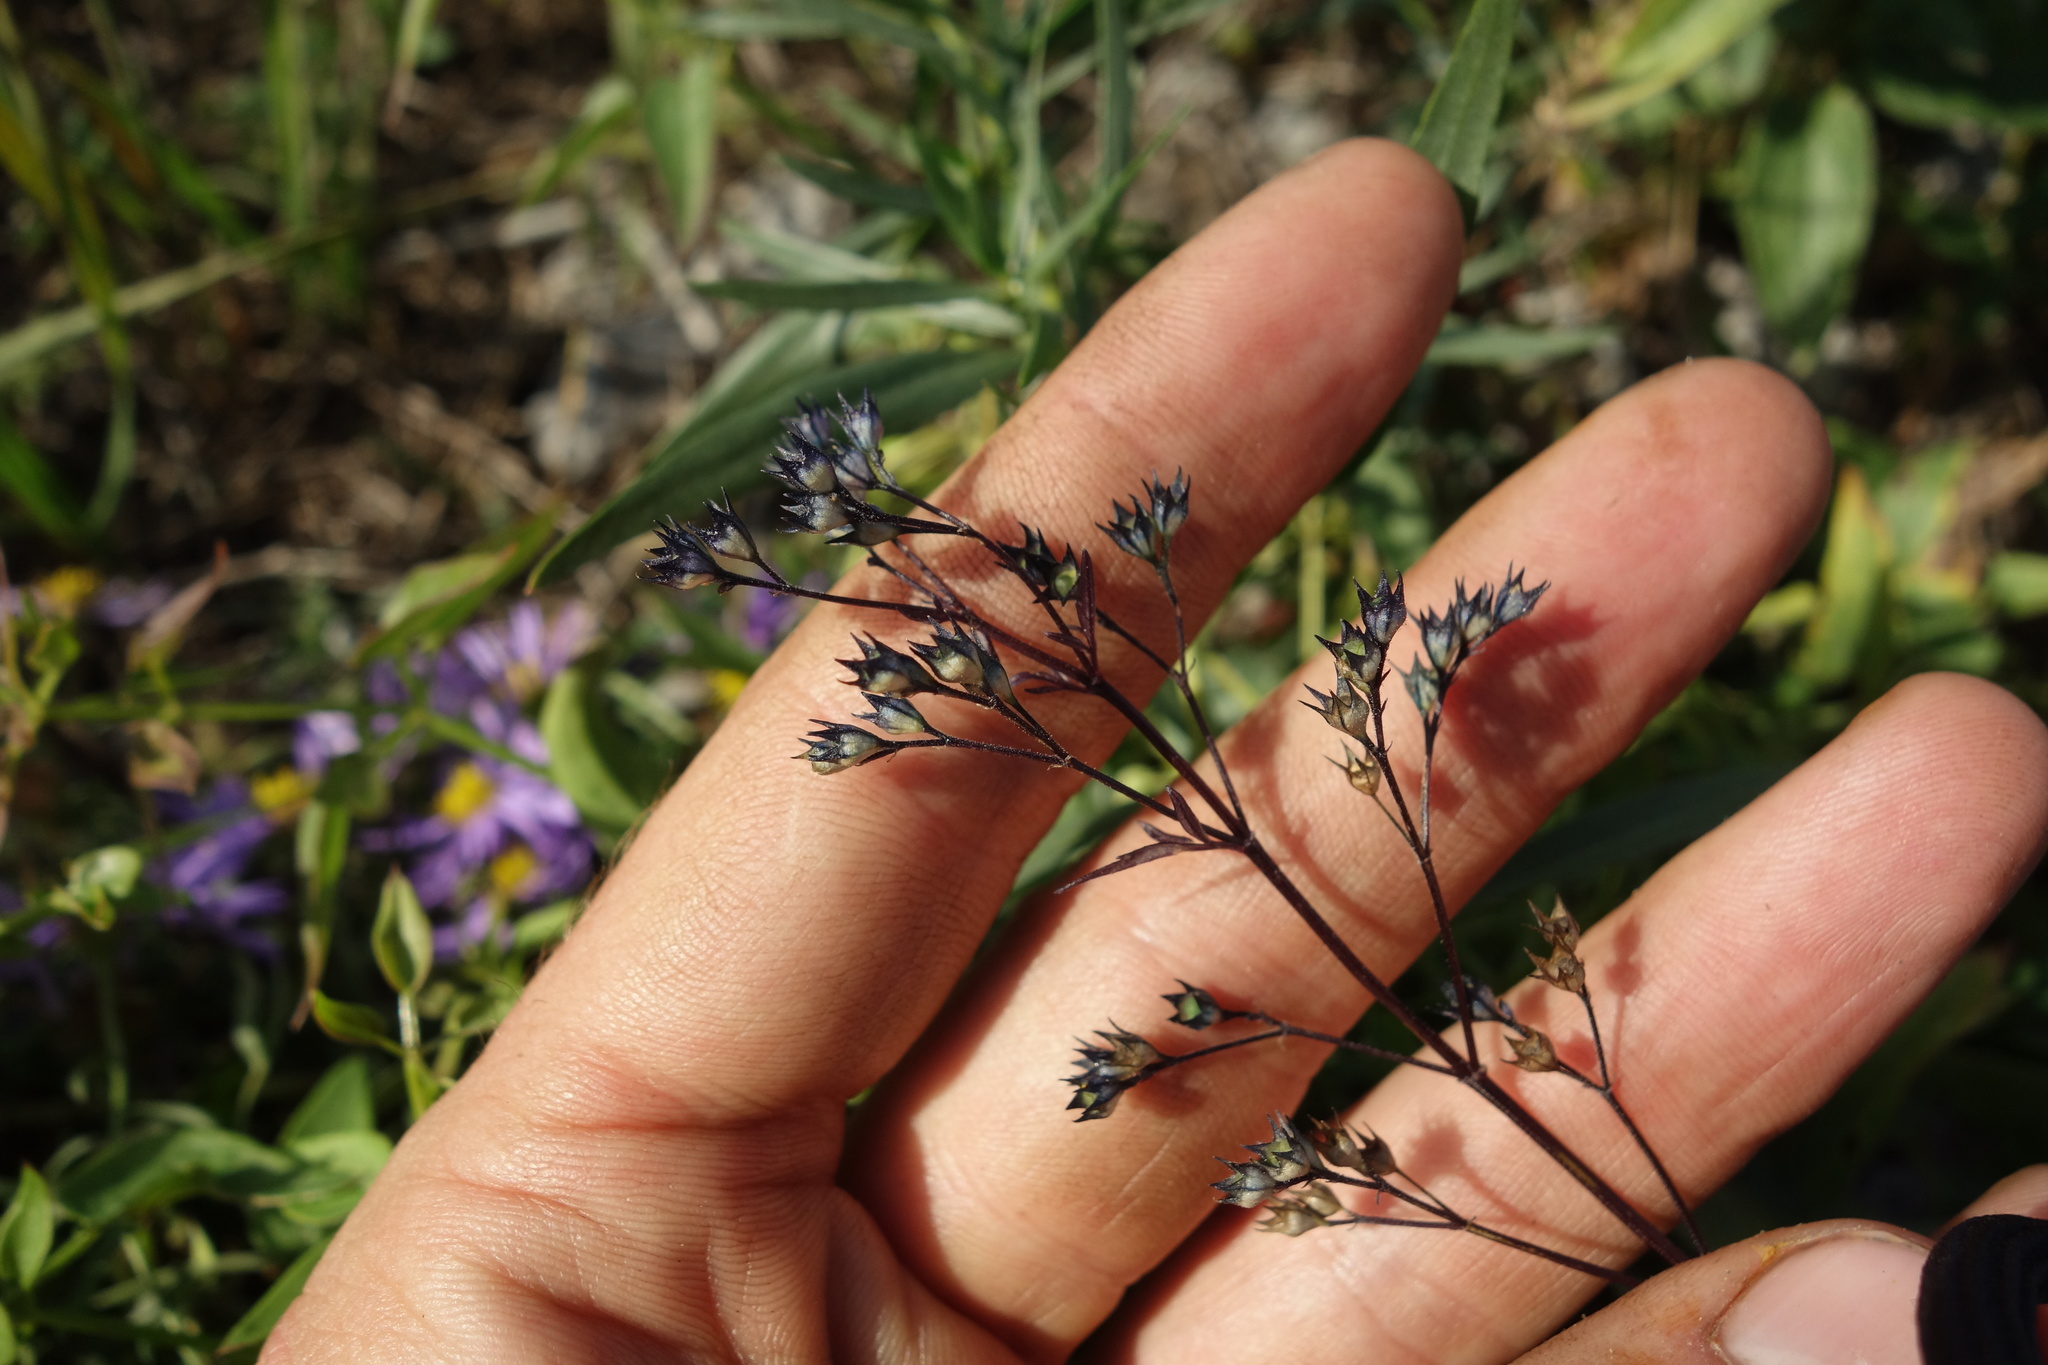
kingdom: Plantae
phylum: Tracheophyta
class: Magnoliopsida
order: Lamiales
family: Lamiaceae
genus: Amethystea
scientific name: Amethystea caerulea
